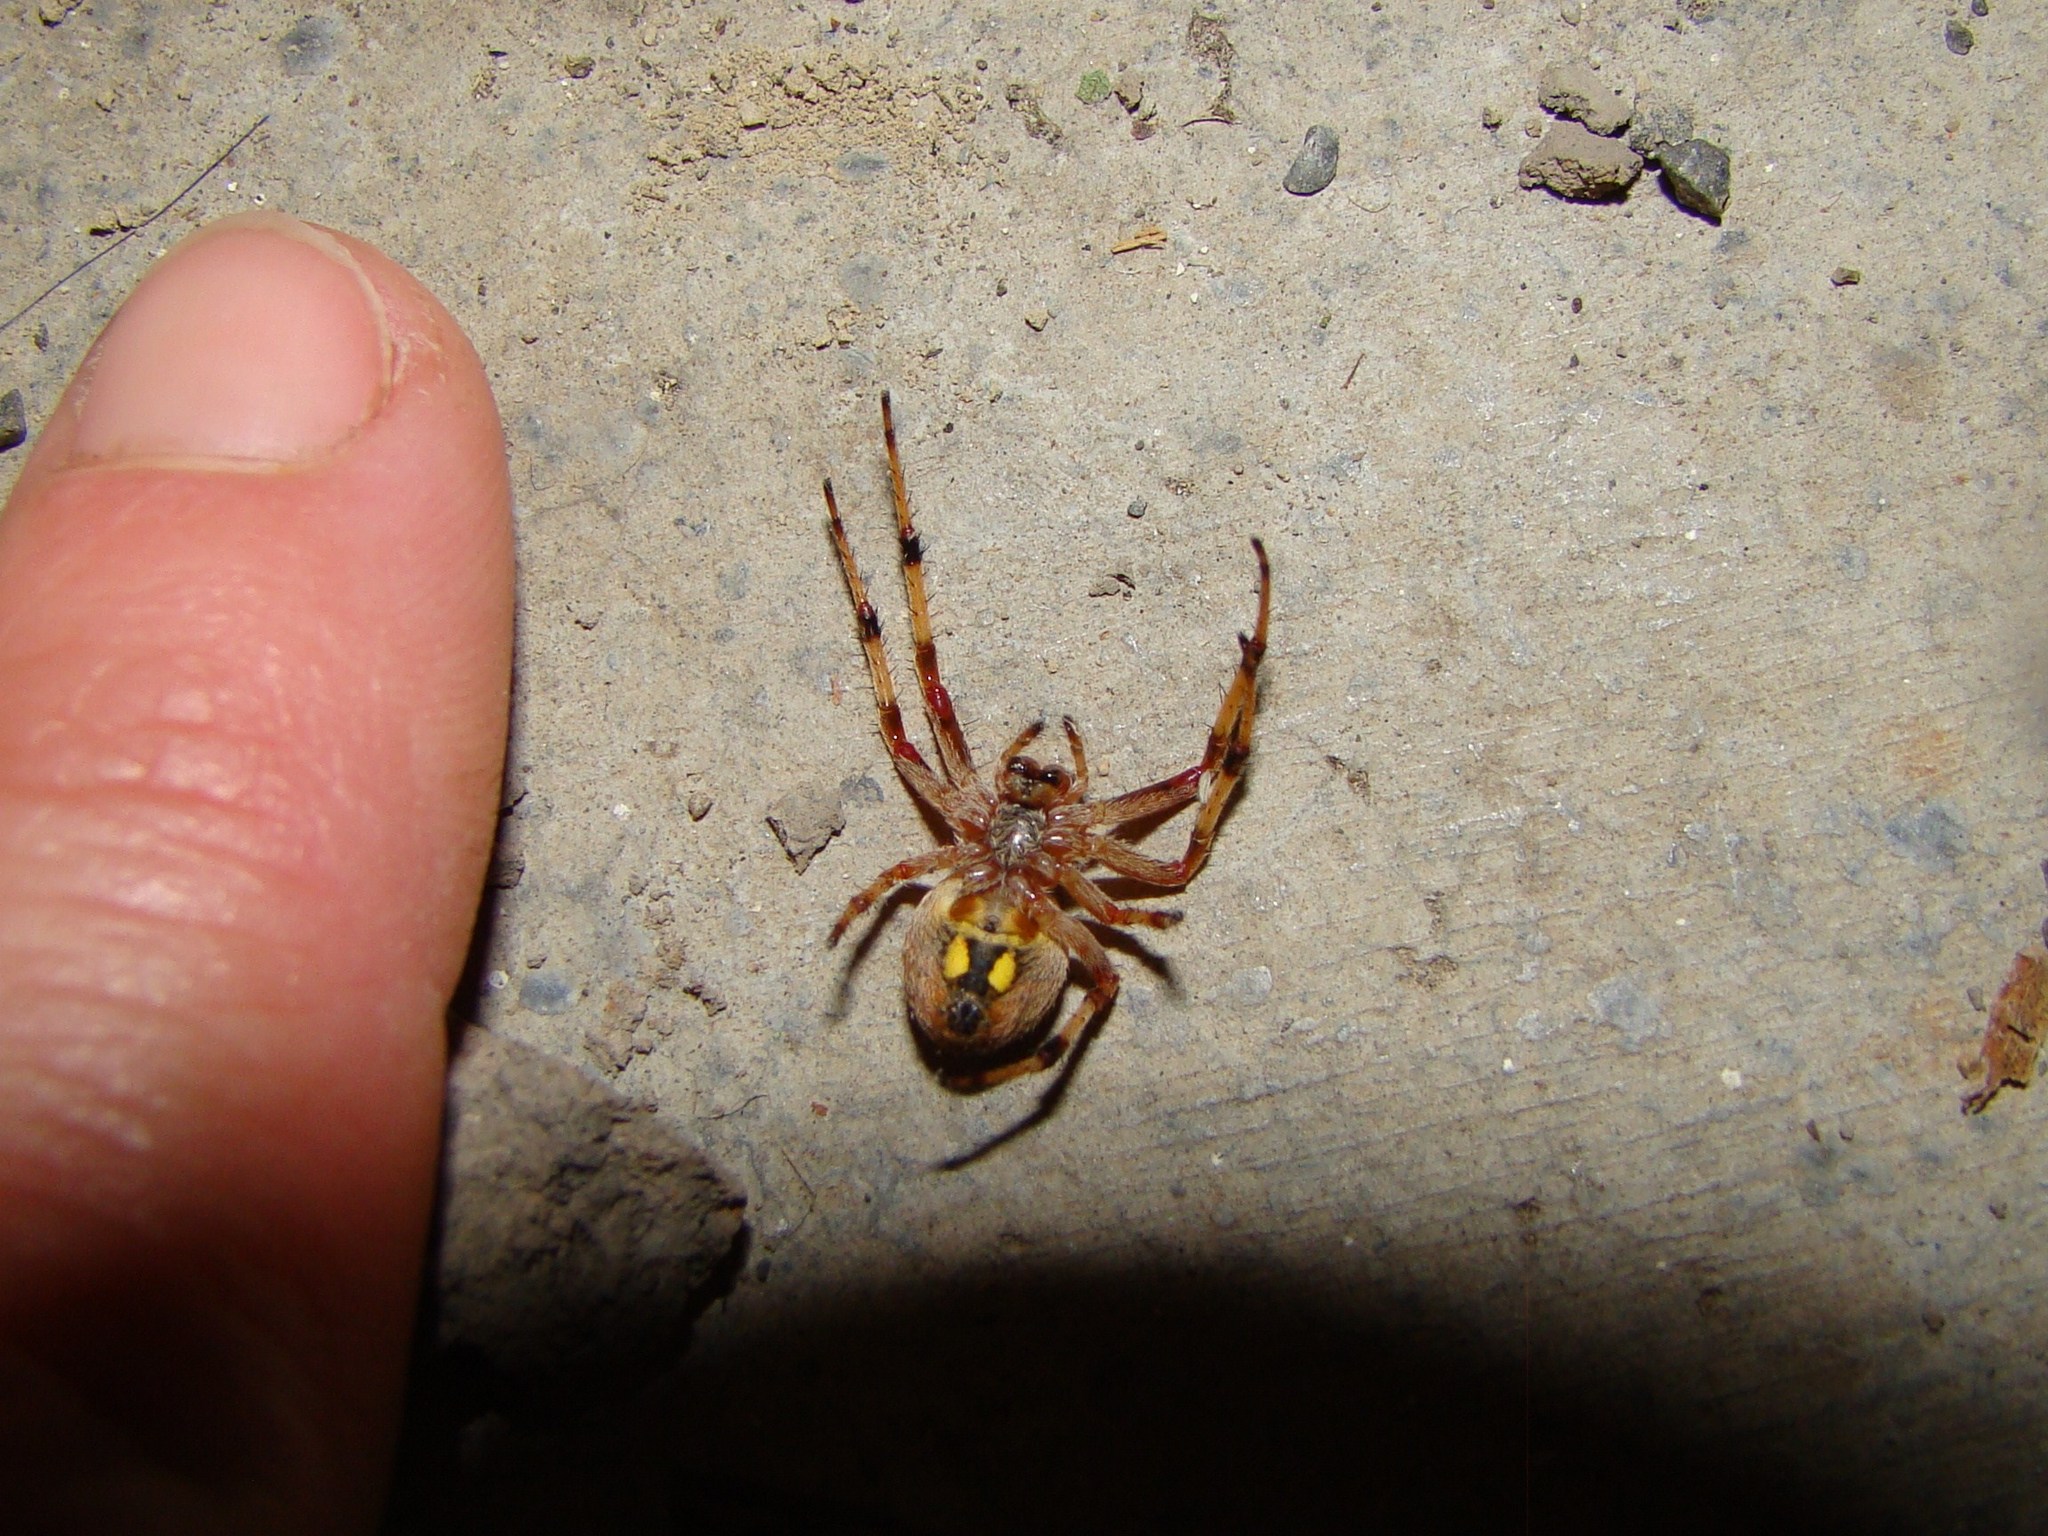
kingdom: Animalia
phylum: Arthropoda
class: Arachnida
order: Araneae
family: Araneidae
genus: Salsa
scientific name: Salsa fuliginata
